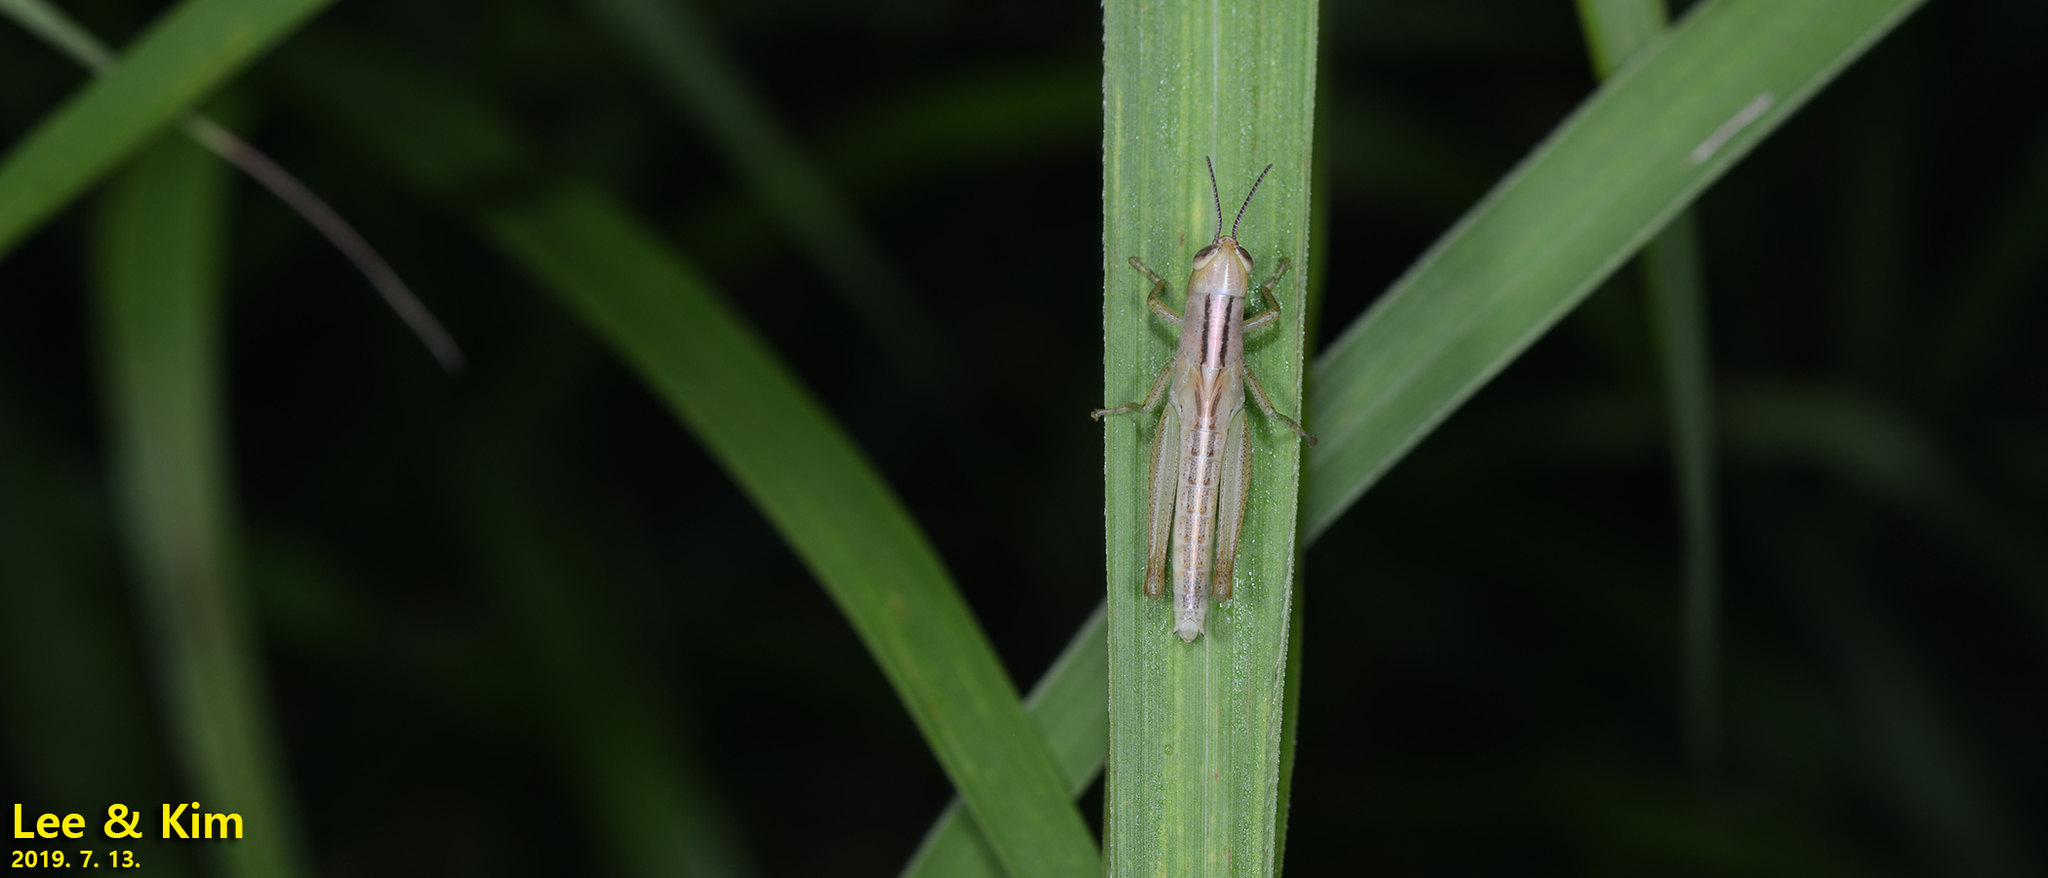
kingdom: Animalia
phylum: Arthropoda
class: Insecta
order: Orthoptera
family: Acrididae
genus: Oxya
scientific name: Oxya sinuosa
